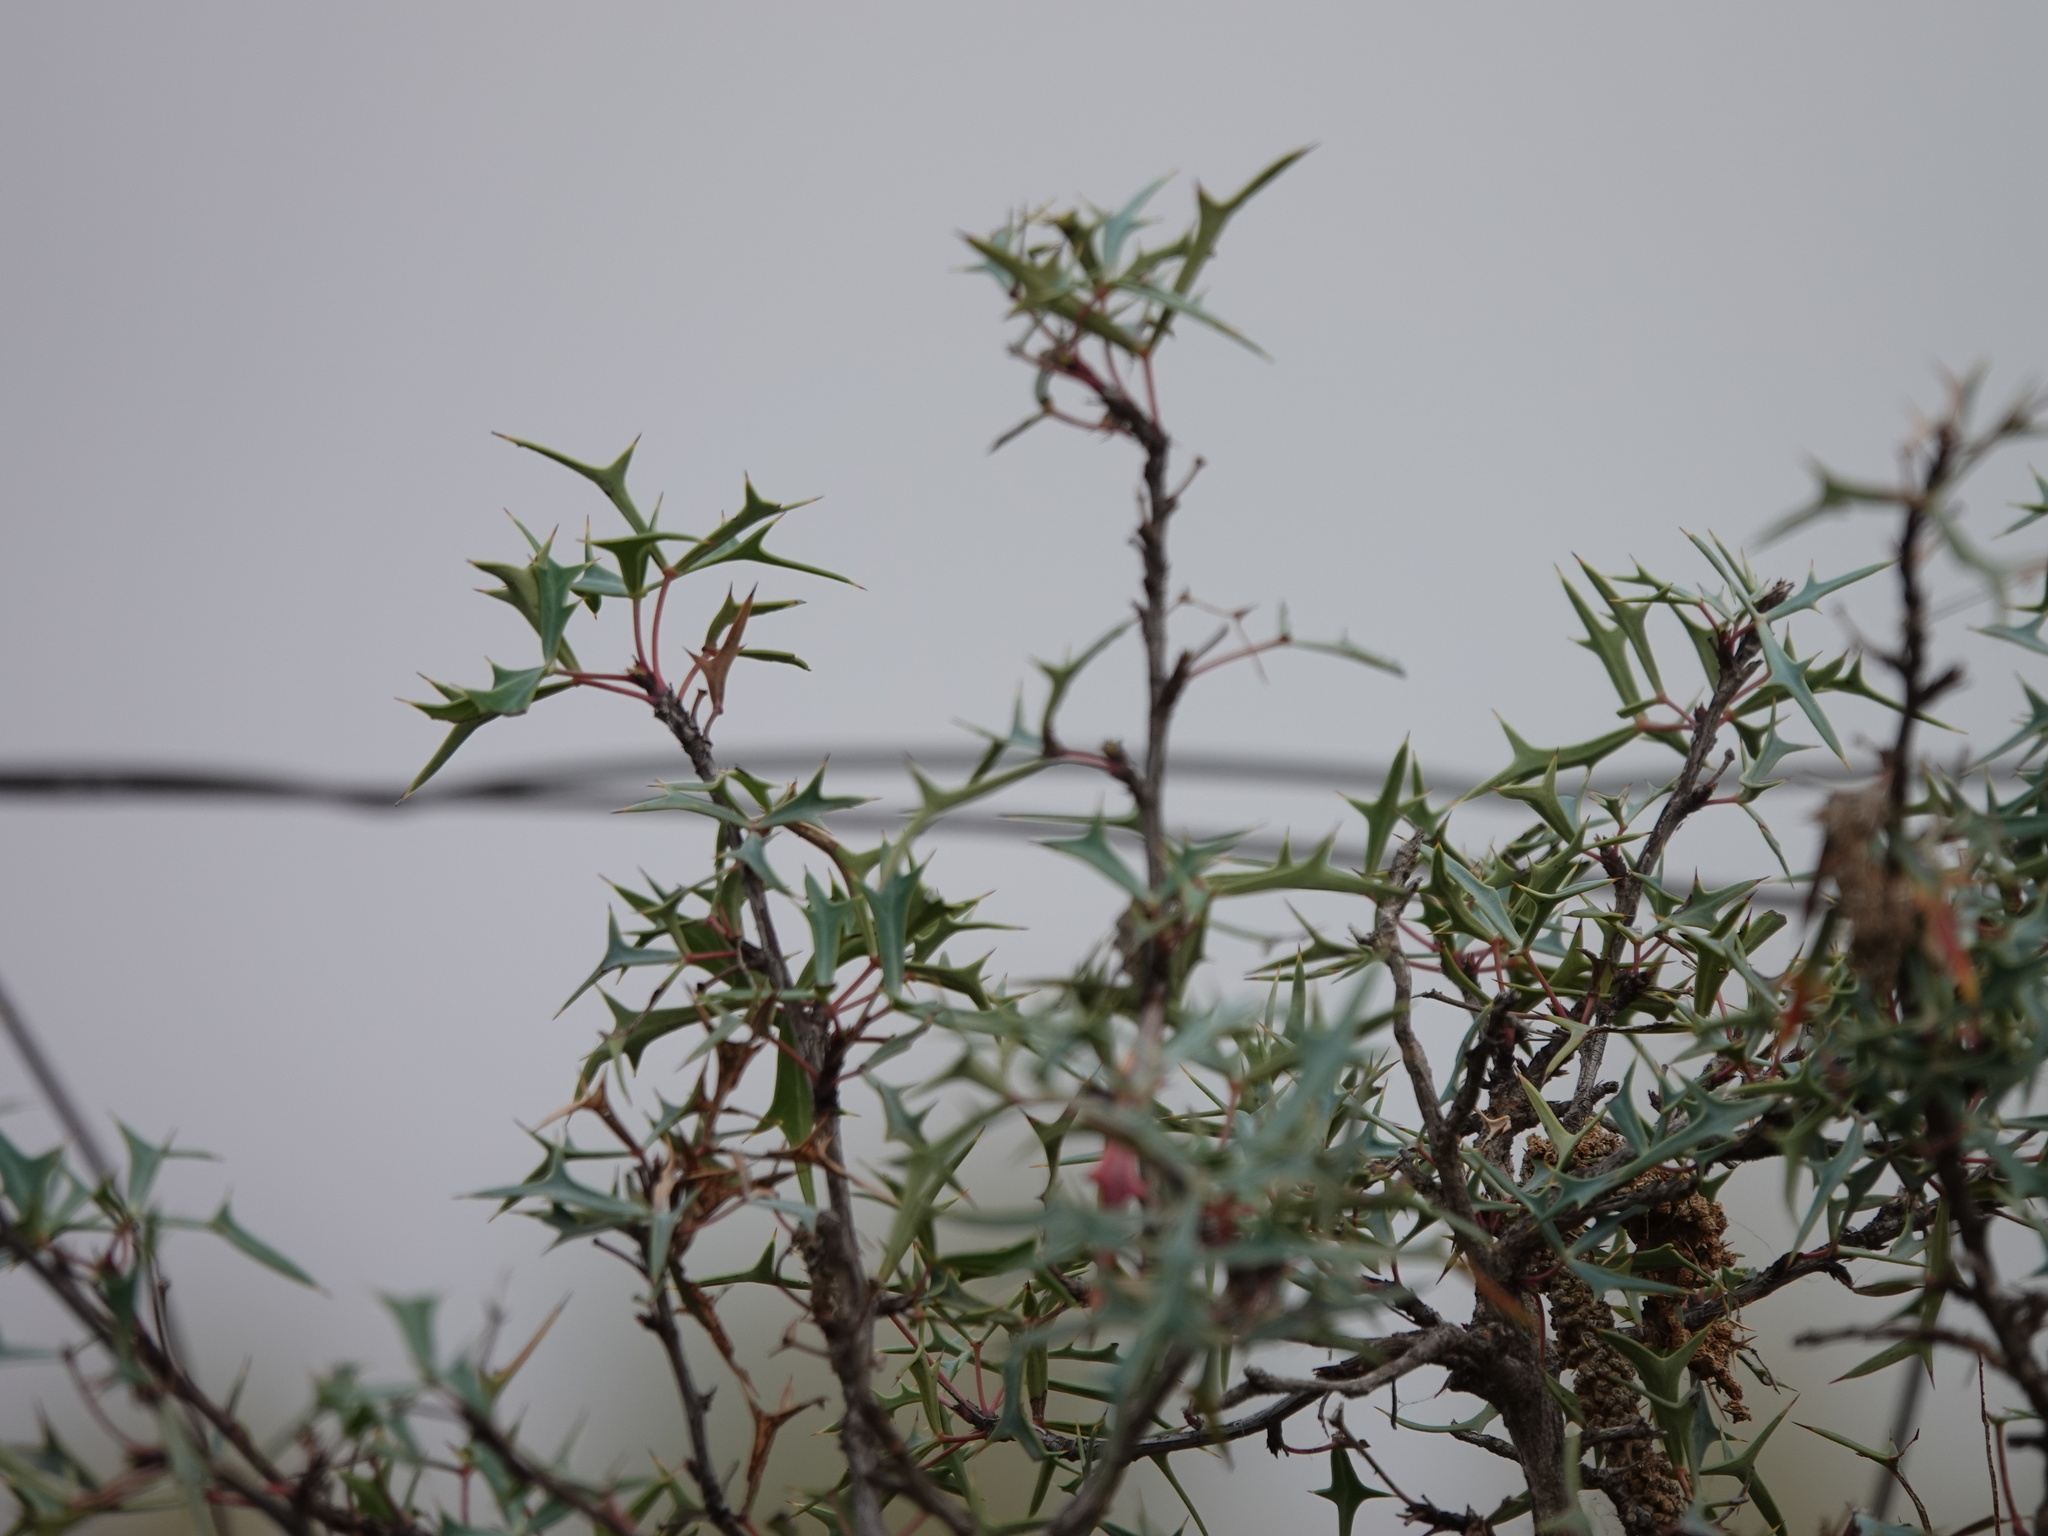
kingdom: Plantae
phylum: Tracheophyta
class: Magnoliopsida
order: Ranunculales
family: Berberidaceae
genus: Alloberberis
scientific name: Alloberberis trifoliolata
